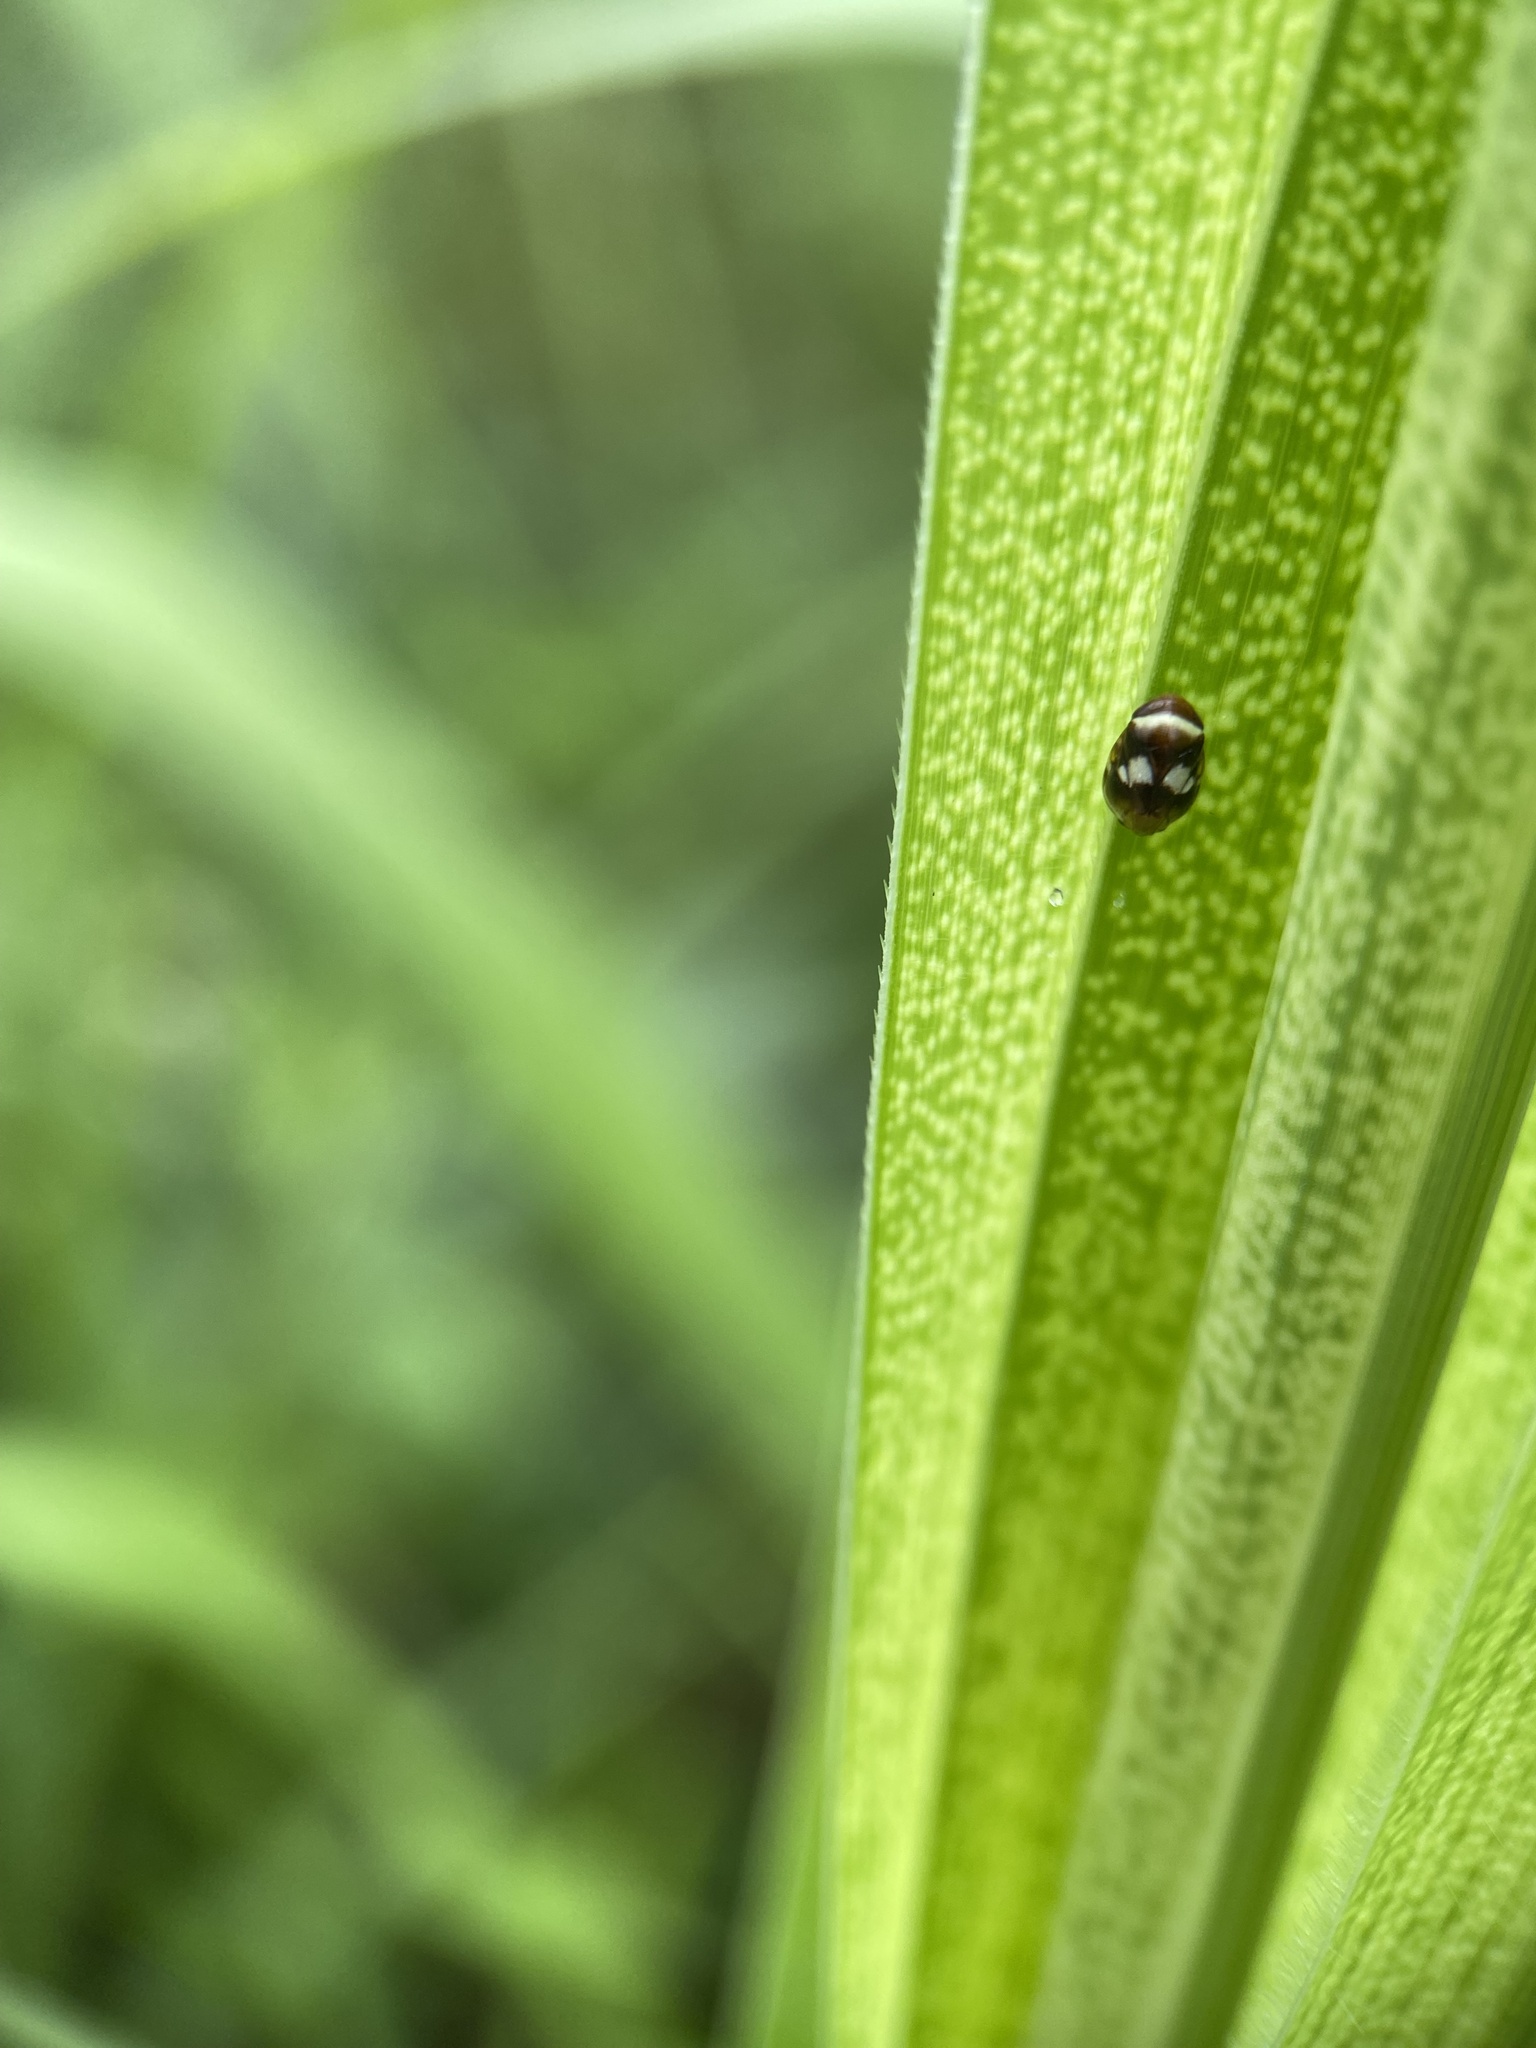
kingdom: Animalia
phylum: Arthropoda
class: Insecta
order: Hemiptera
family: Clastopteridae
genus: Clastoptera
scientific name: Clastoptera compta
